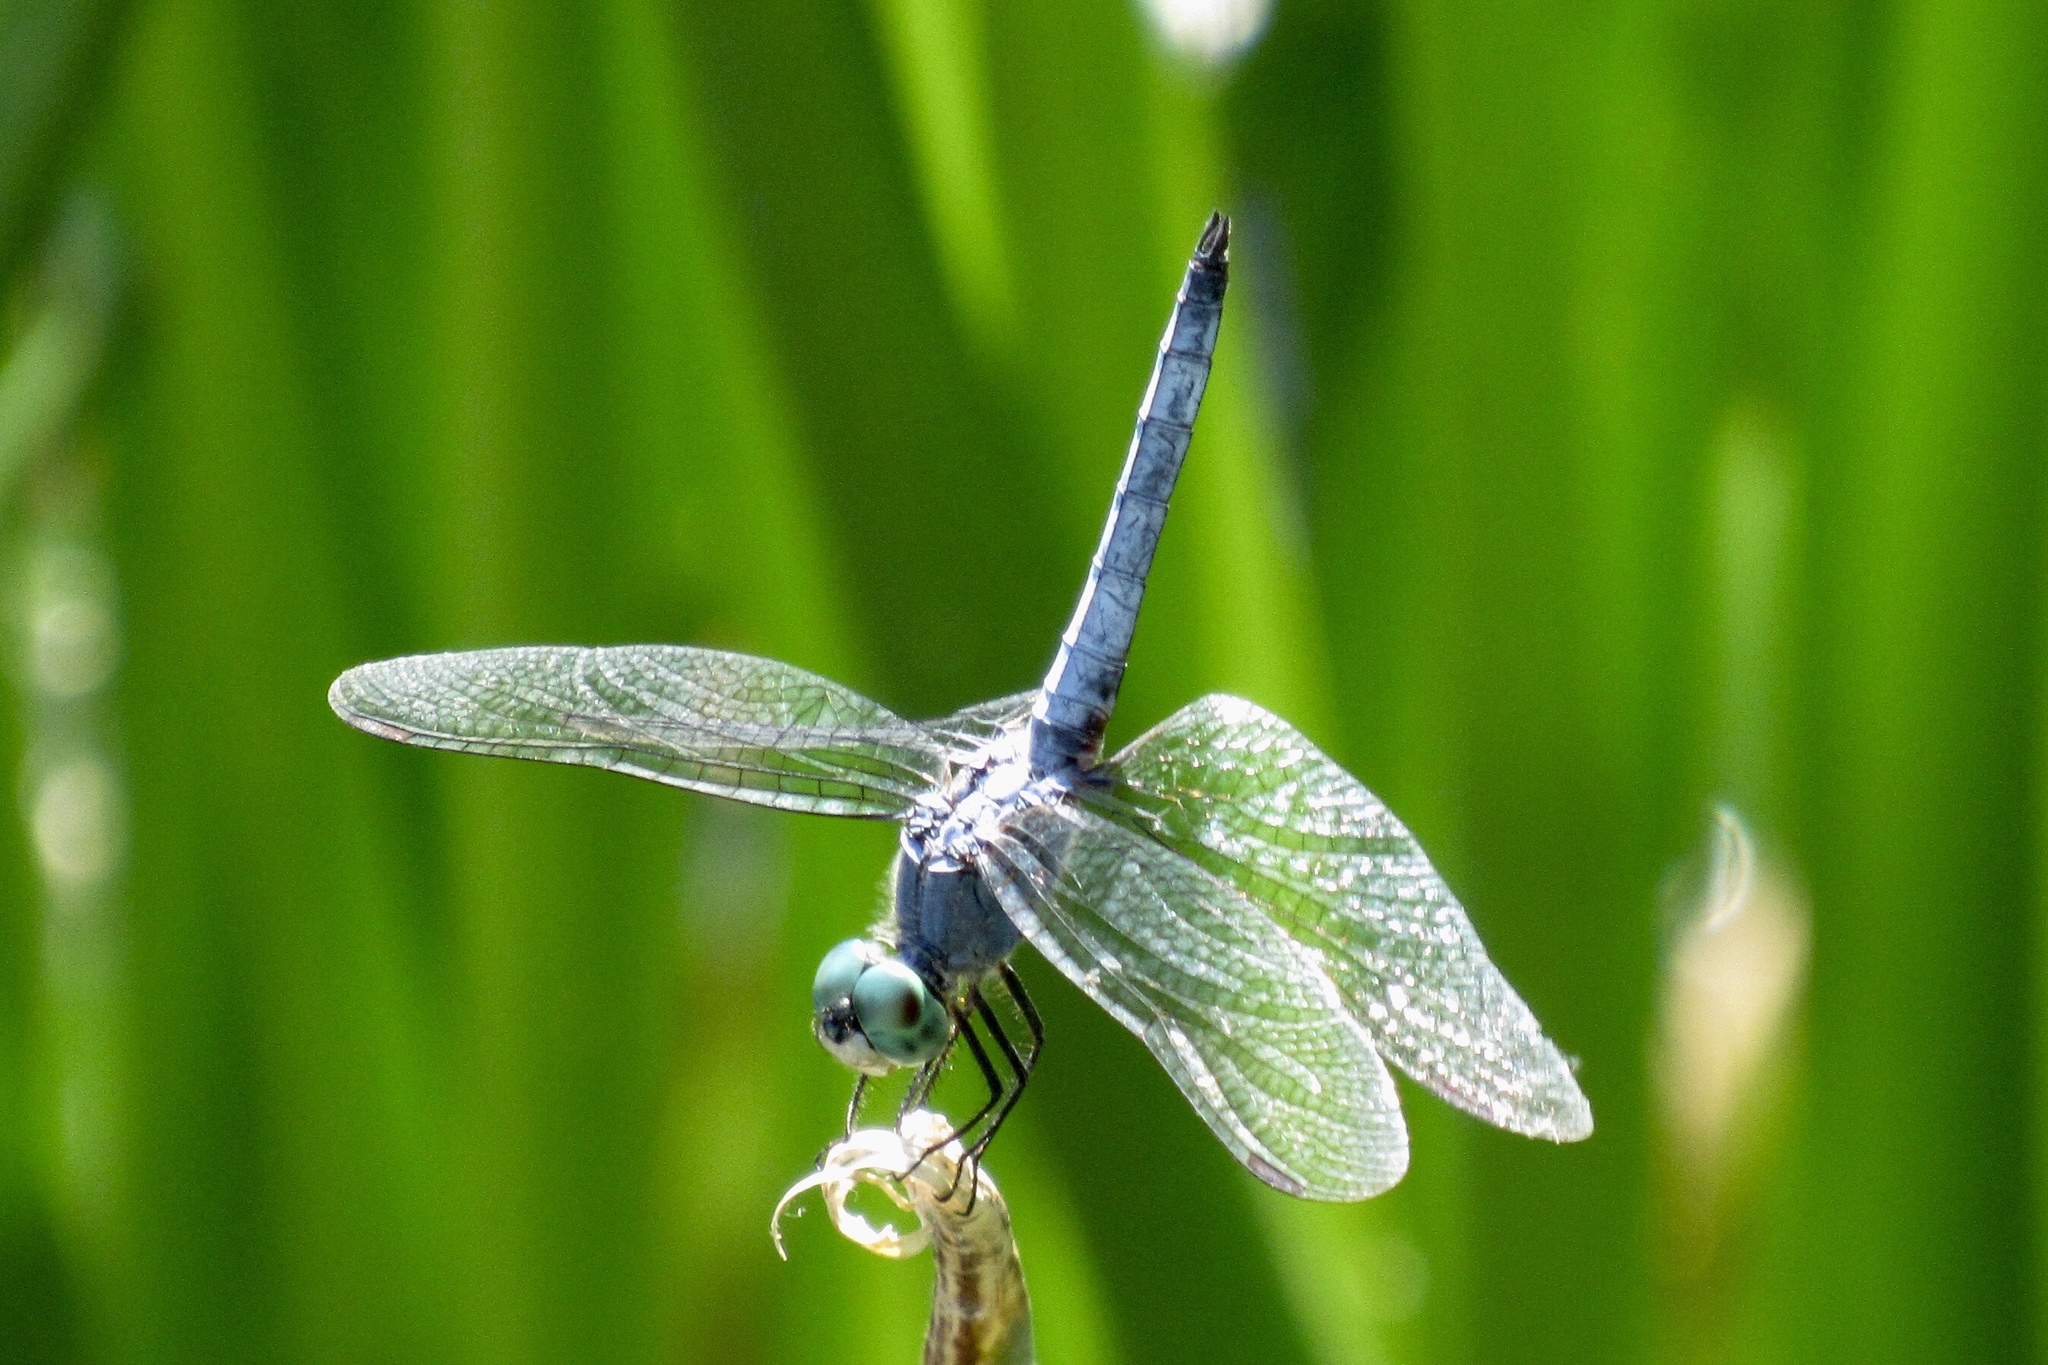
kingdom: Animalia
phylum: Arthropoda
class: Insecta
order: Odonata
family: Libellulidae
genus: Pachydiplax
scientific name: Pachydiplax longipennis
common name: Blue dasher
